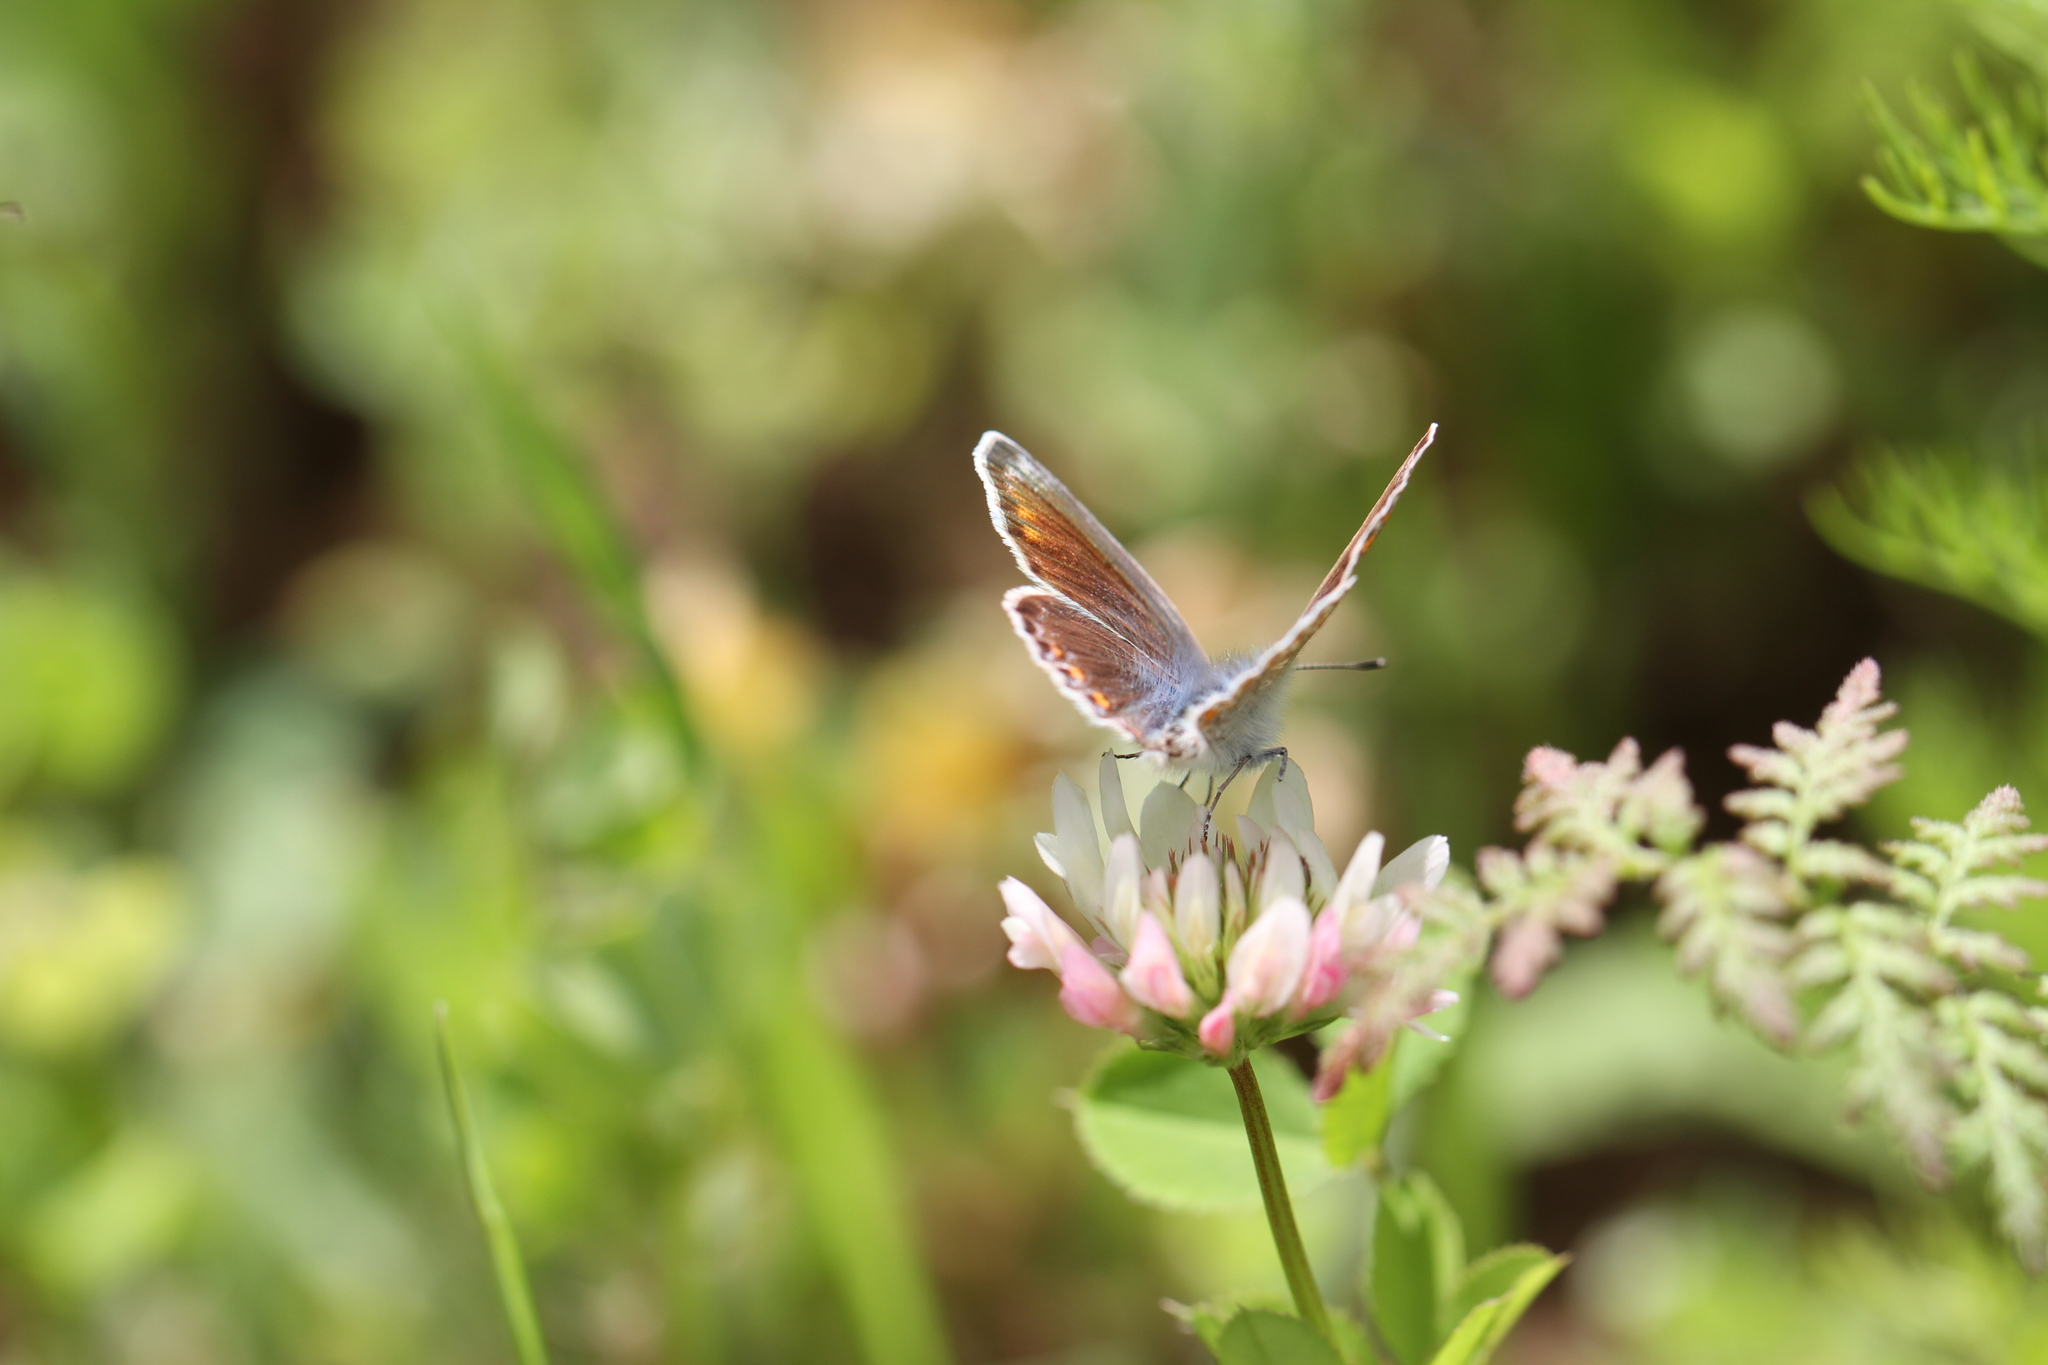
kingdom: Animalia
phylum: Arthropoda
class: Insecta
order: Lepidoptera
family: Lycaenidae
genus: Polyommatus
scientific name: Polyommatus icarus
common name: Common blue
